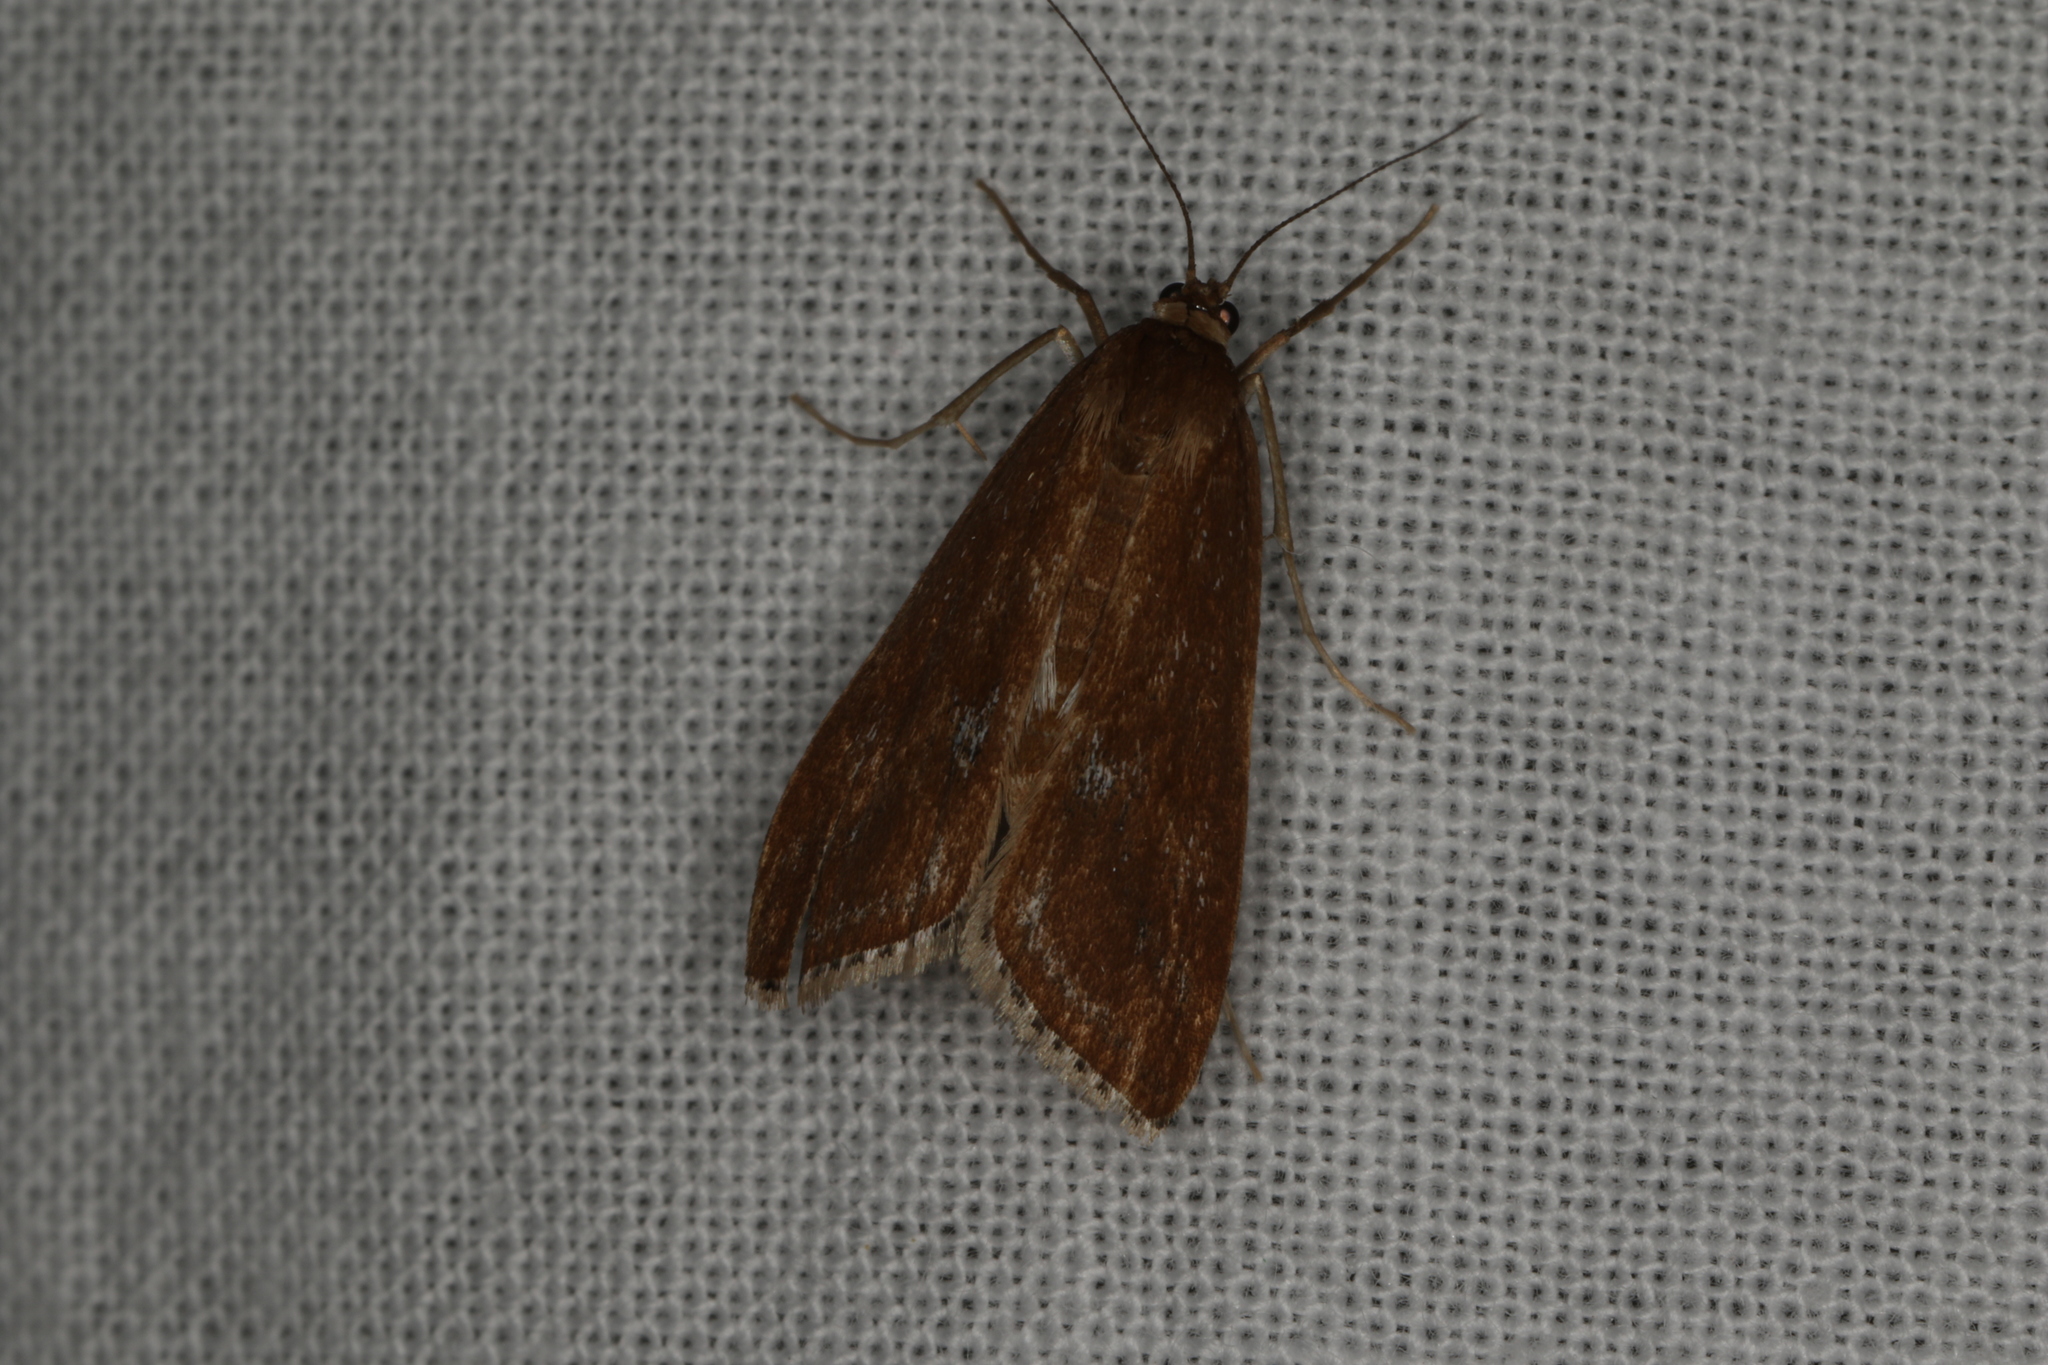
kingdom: Animalia
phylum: Arthropoda
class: Insecta
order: Lepidoptera
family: Crambidae
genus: Parapoynx
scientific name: Parapoynx tullialis
